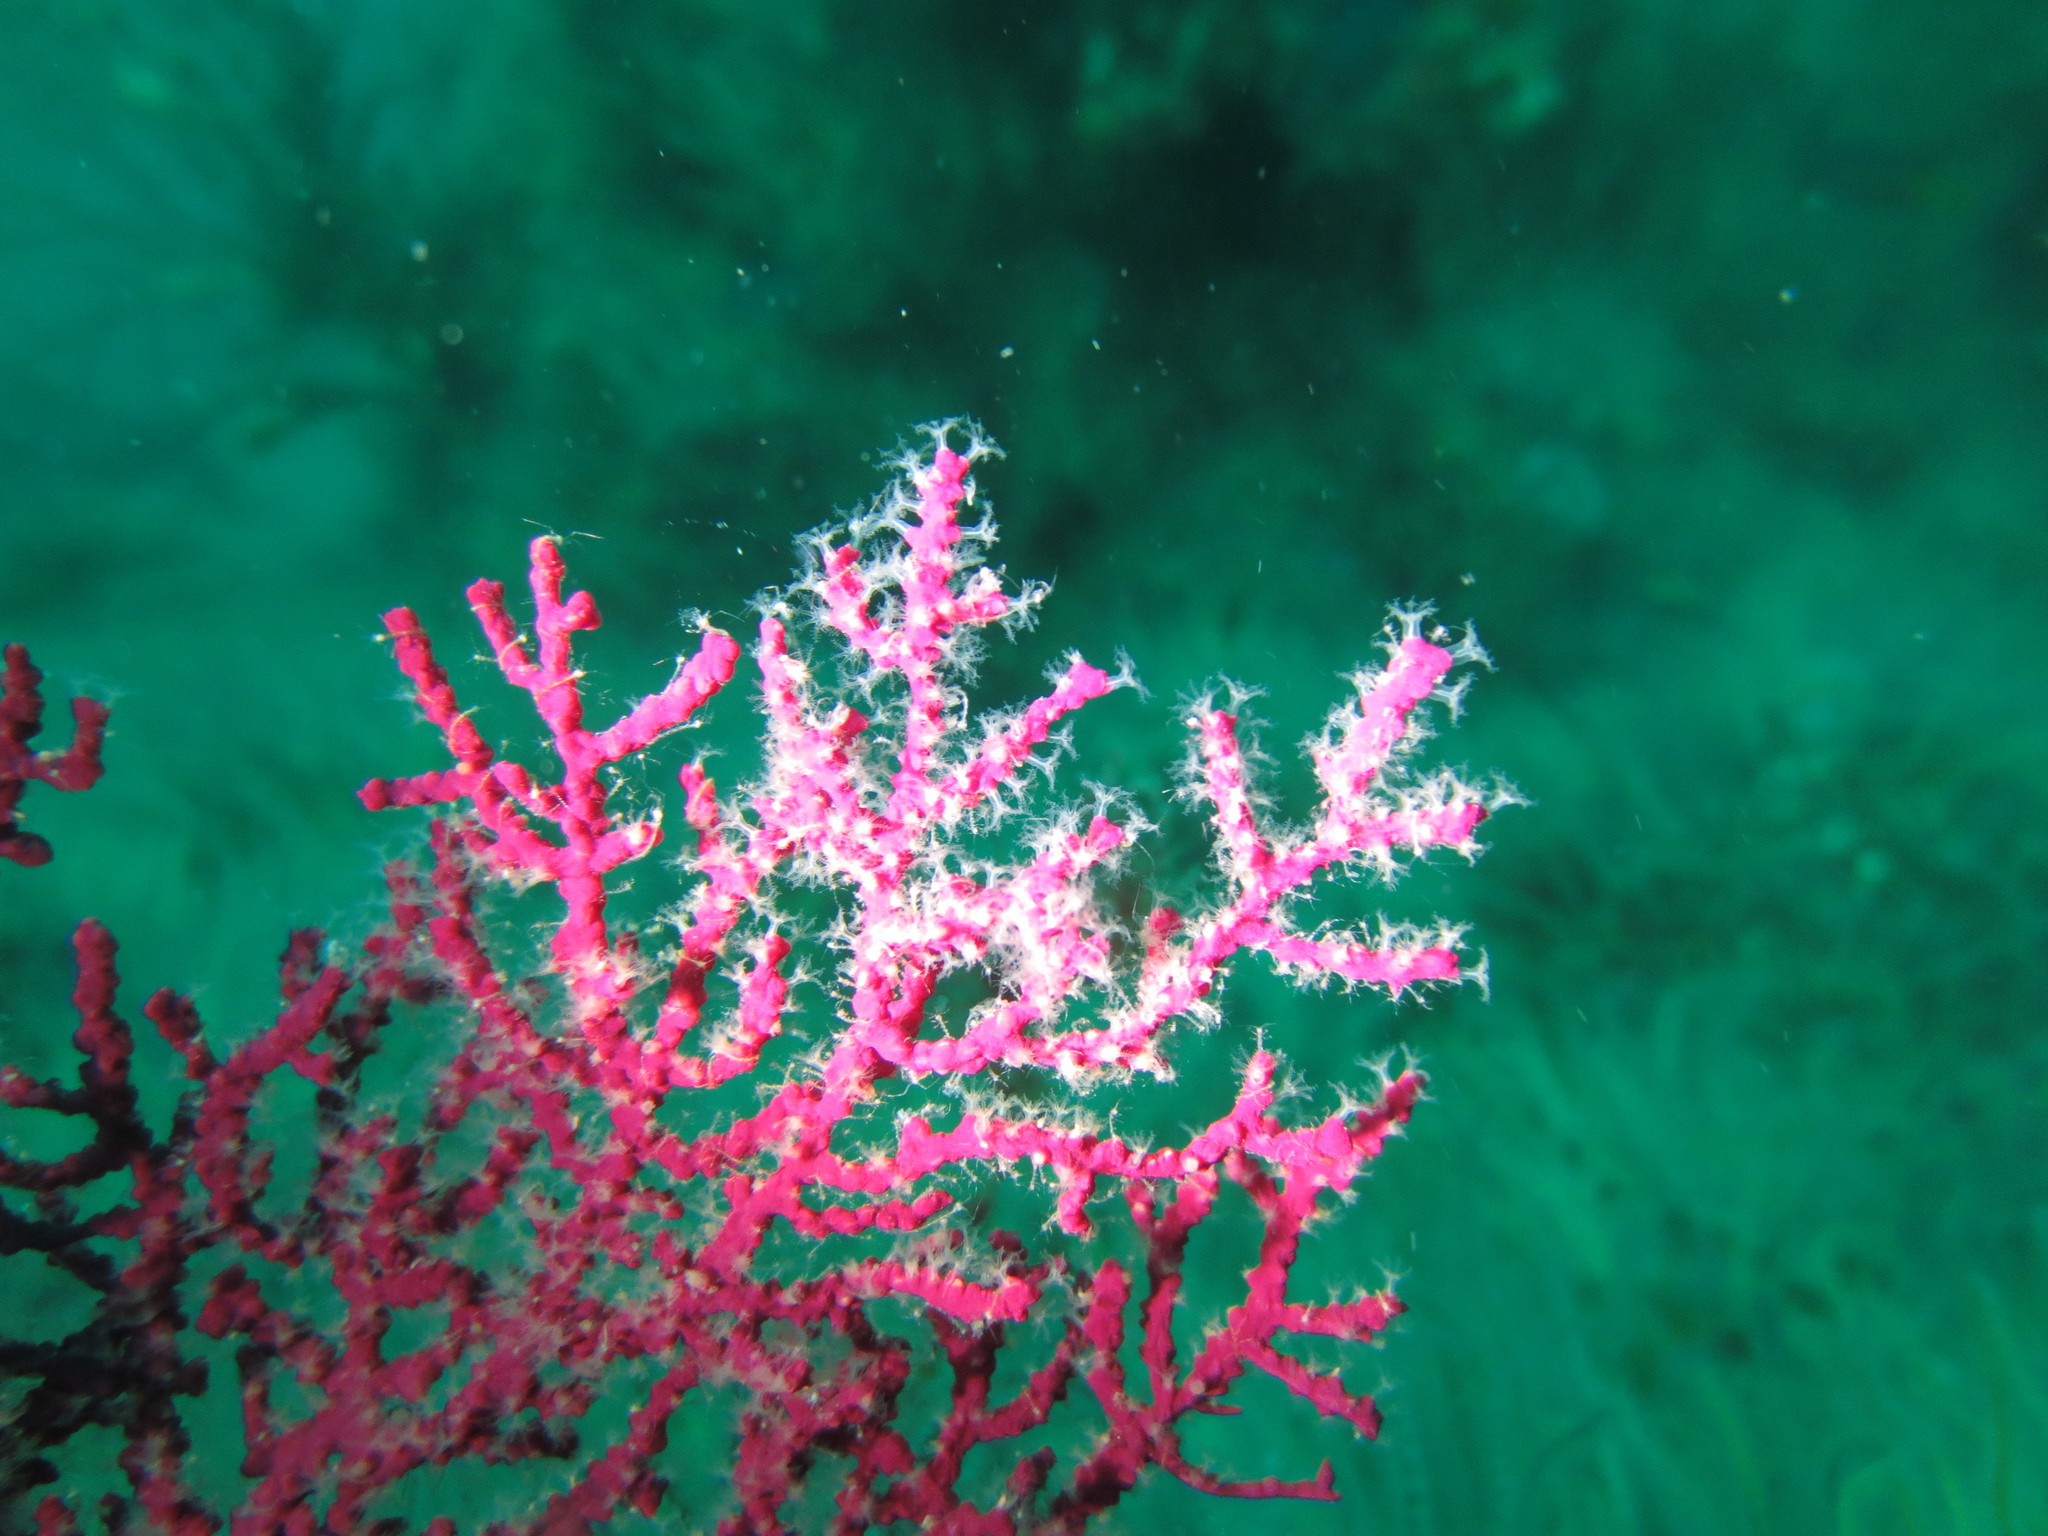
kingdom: Animalia
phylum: Cnidaria
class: Anthozoa
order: Malacalcyonacea
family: Gorgoniidae
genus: Eugorgia
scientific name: Eugorgia rubens
